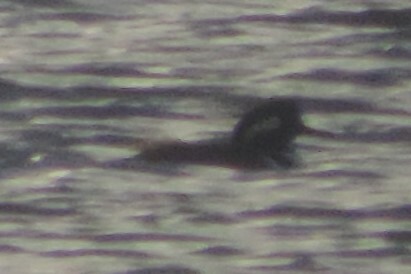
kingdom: Animalia
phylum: Chordata
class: Aves
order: Anseriformes
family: Anatidae
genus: Lophodytes
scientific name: Lophodytes cucullatus
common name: Hooded merganser
